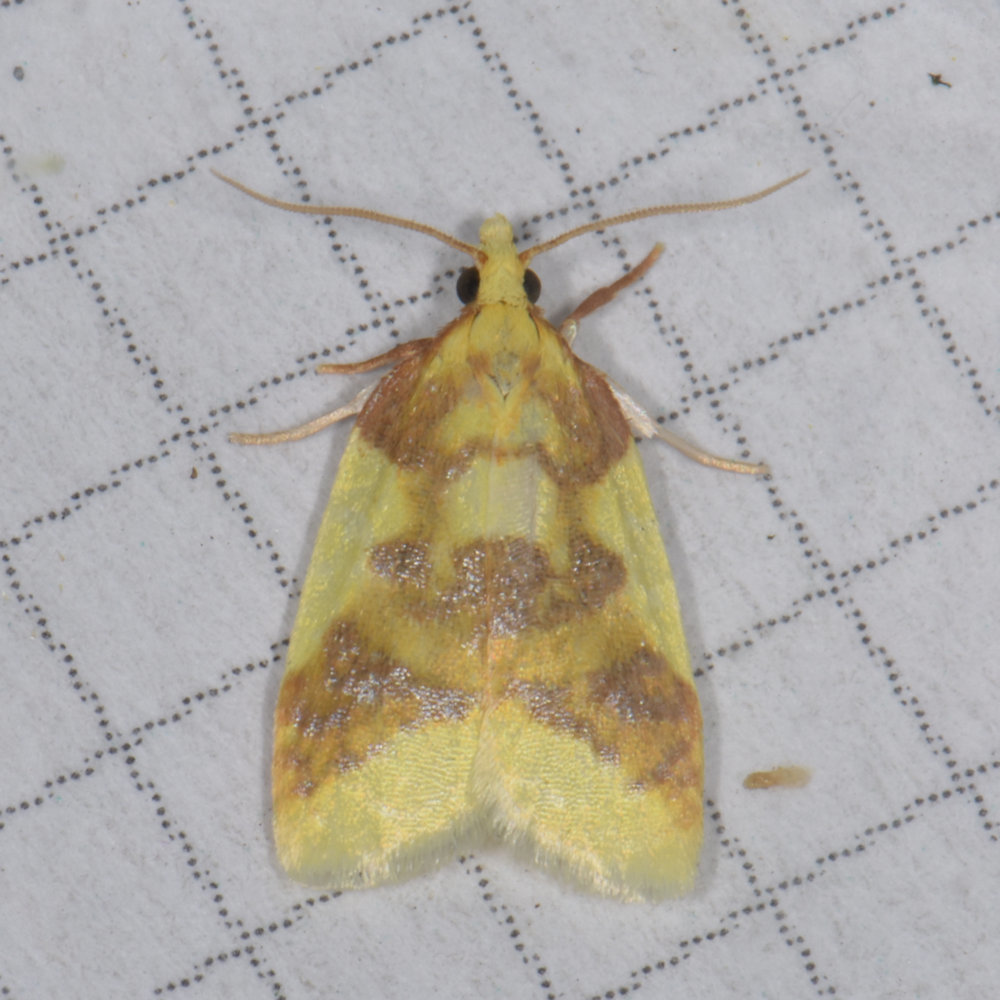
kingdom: Animalia
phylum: Arthropoda
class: Insecta
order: Lepidoptera
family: Tortricidae
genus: Sparganothis
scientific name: Sparganothis pulcherrimana
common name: Beautiful sparganothis
